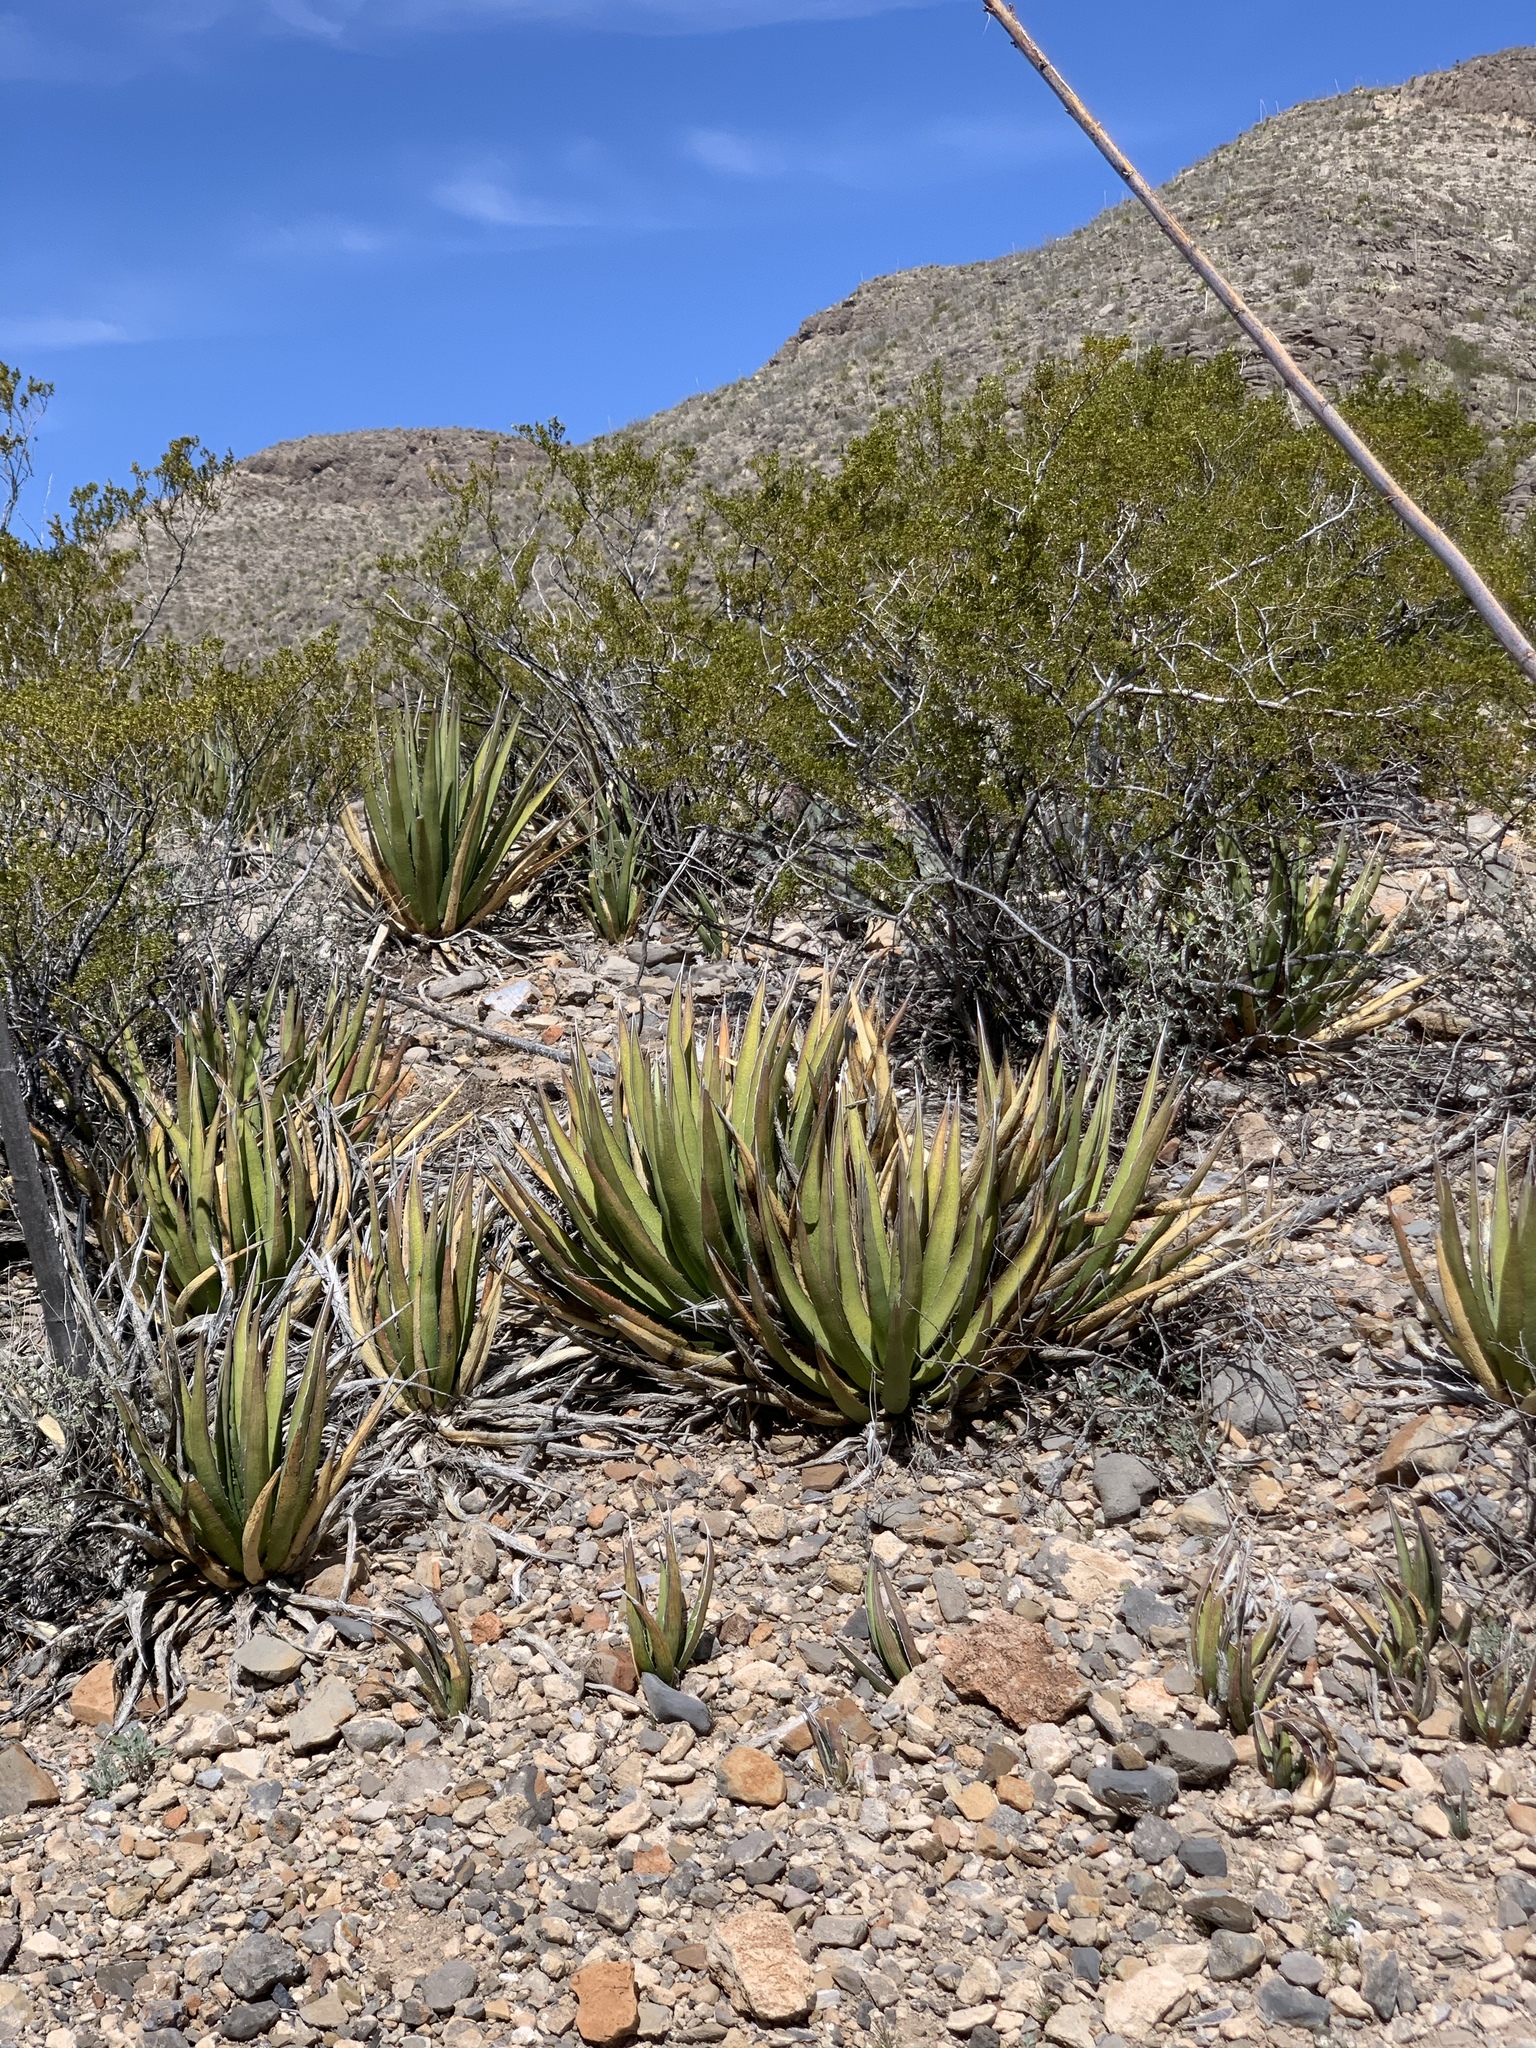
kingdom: Plantae
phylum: Tracheophyta
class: Liliopsida
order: Asparagales
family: Asparagaceae
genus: Agave
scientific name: Agave lechuguilla
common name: Lecheguilla agave
